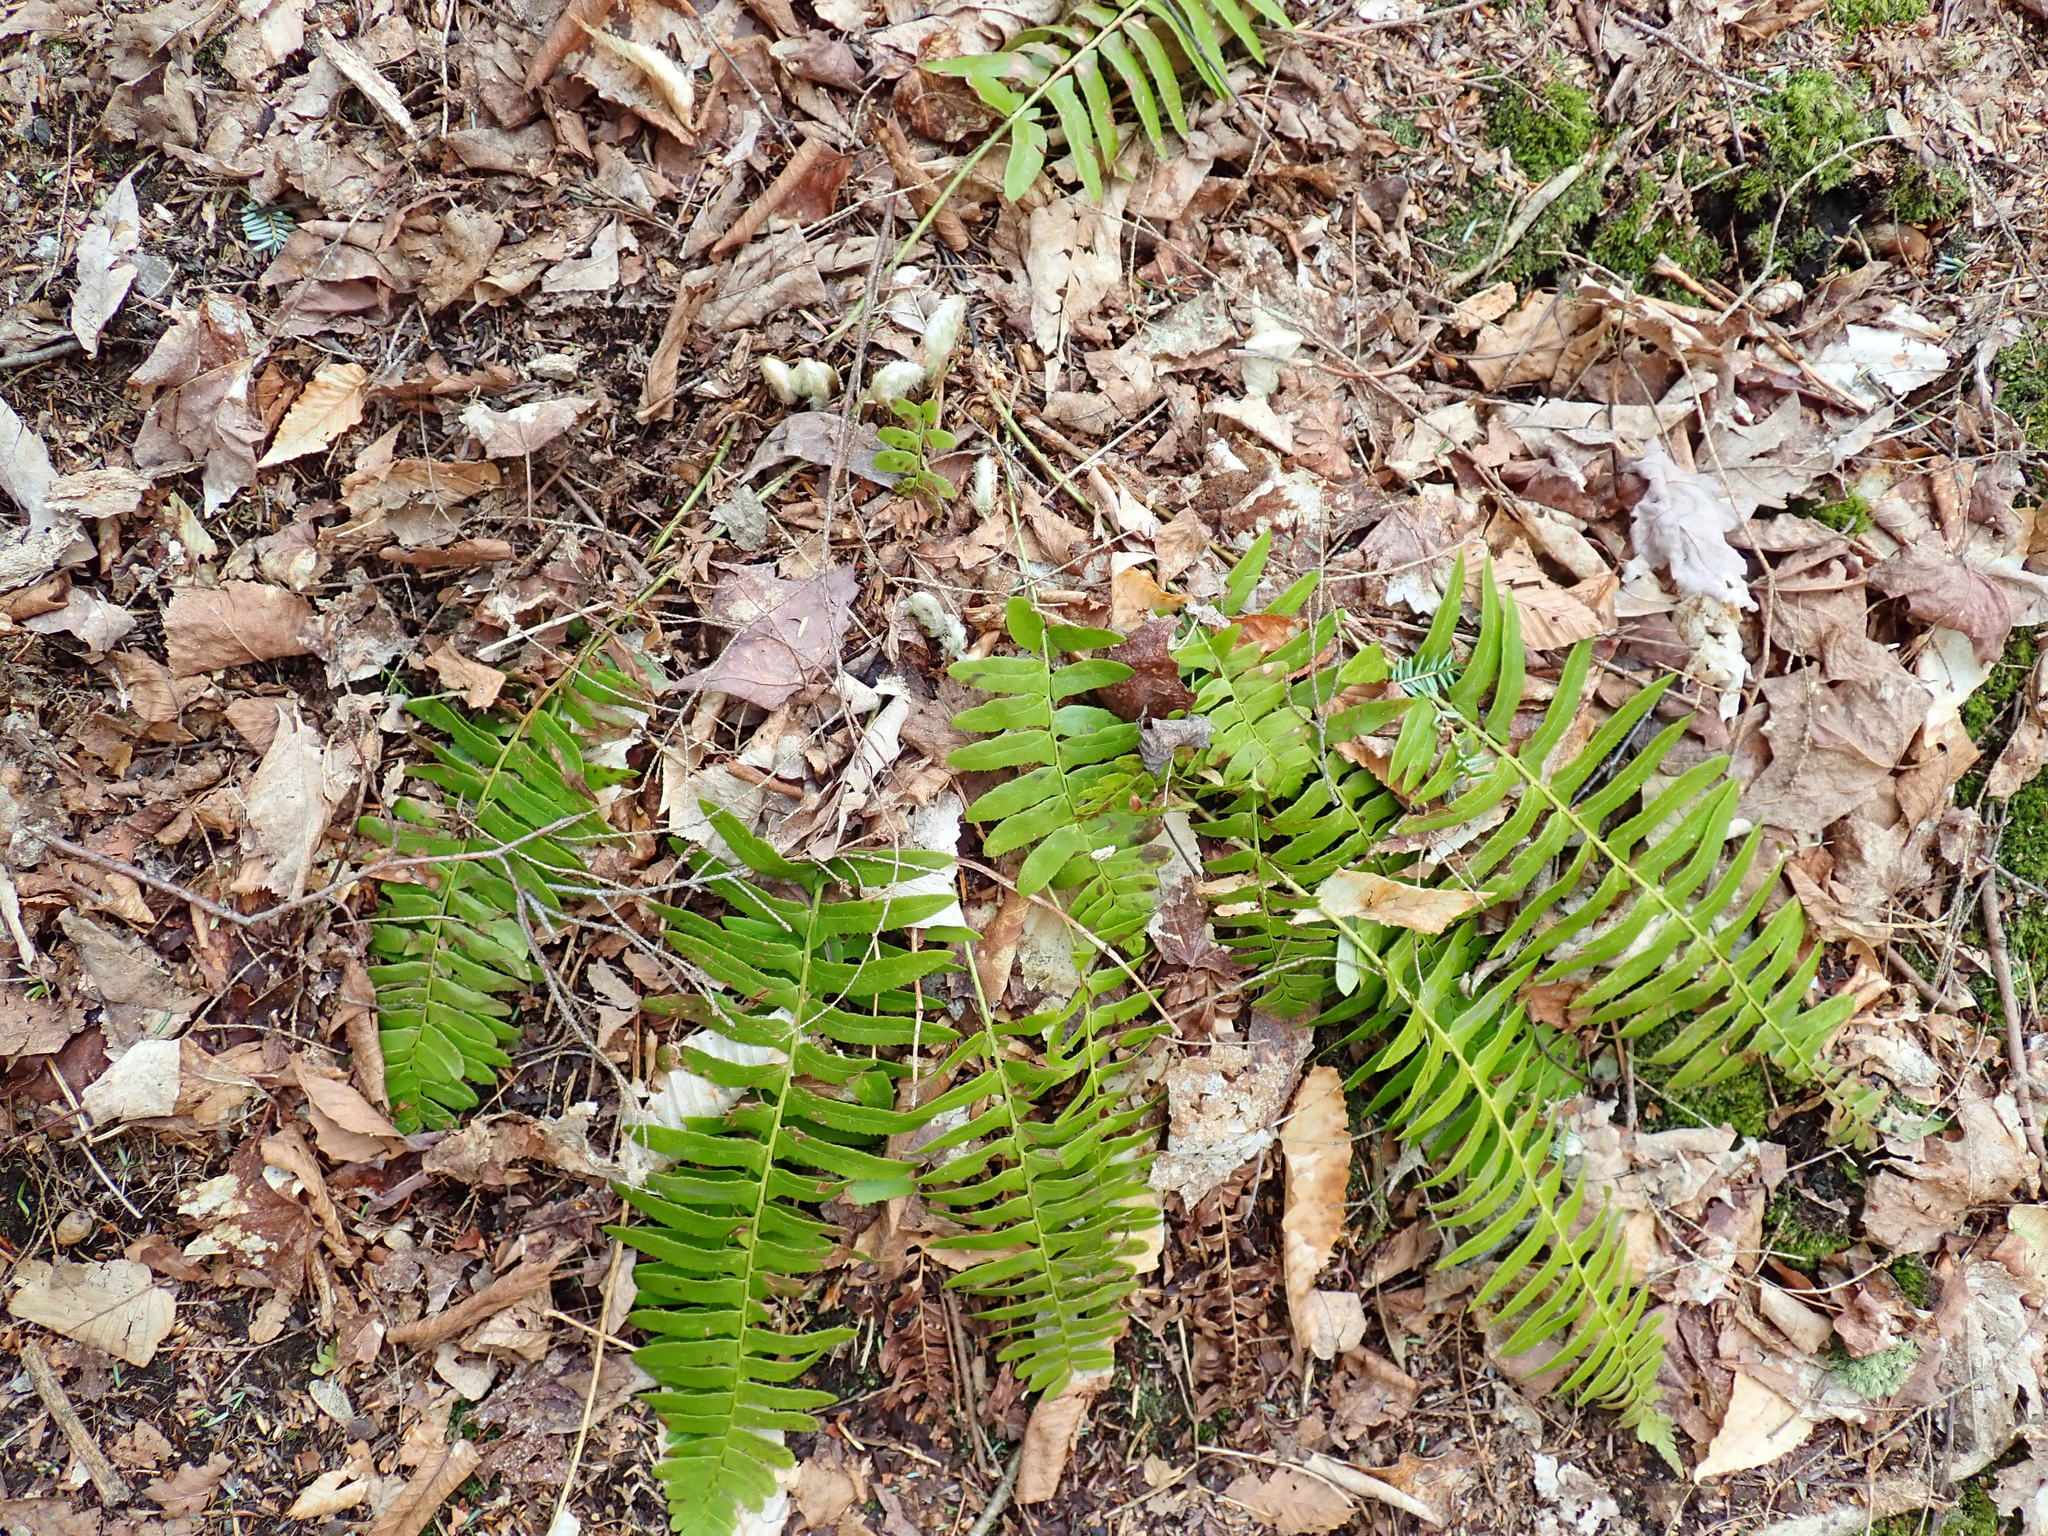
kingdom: Plantae
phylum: Tracheophyta
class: Polypodiopsida
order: Polypodiales
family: Dryopteridaceae
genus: Polystichum
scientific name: Polystichum acrostichoides
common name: Christmas fern
